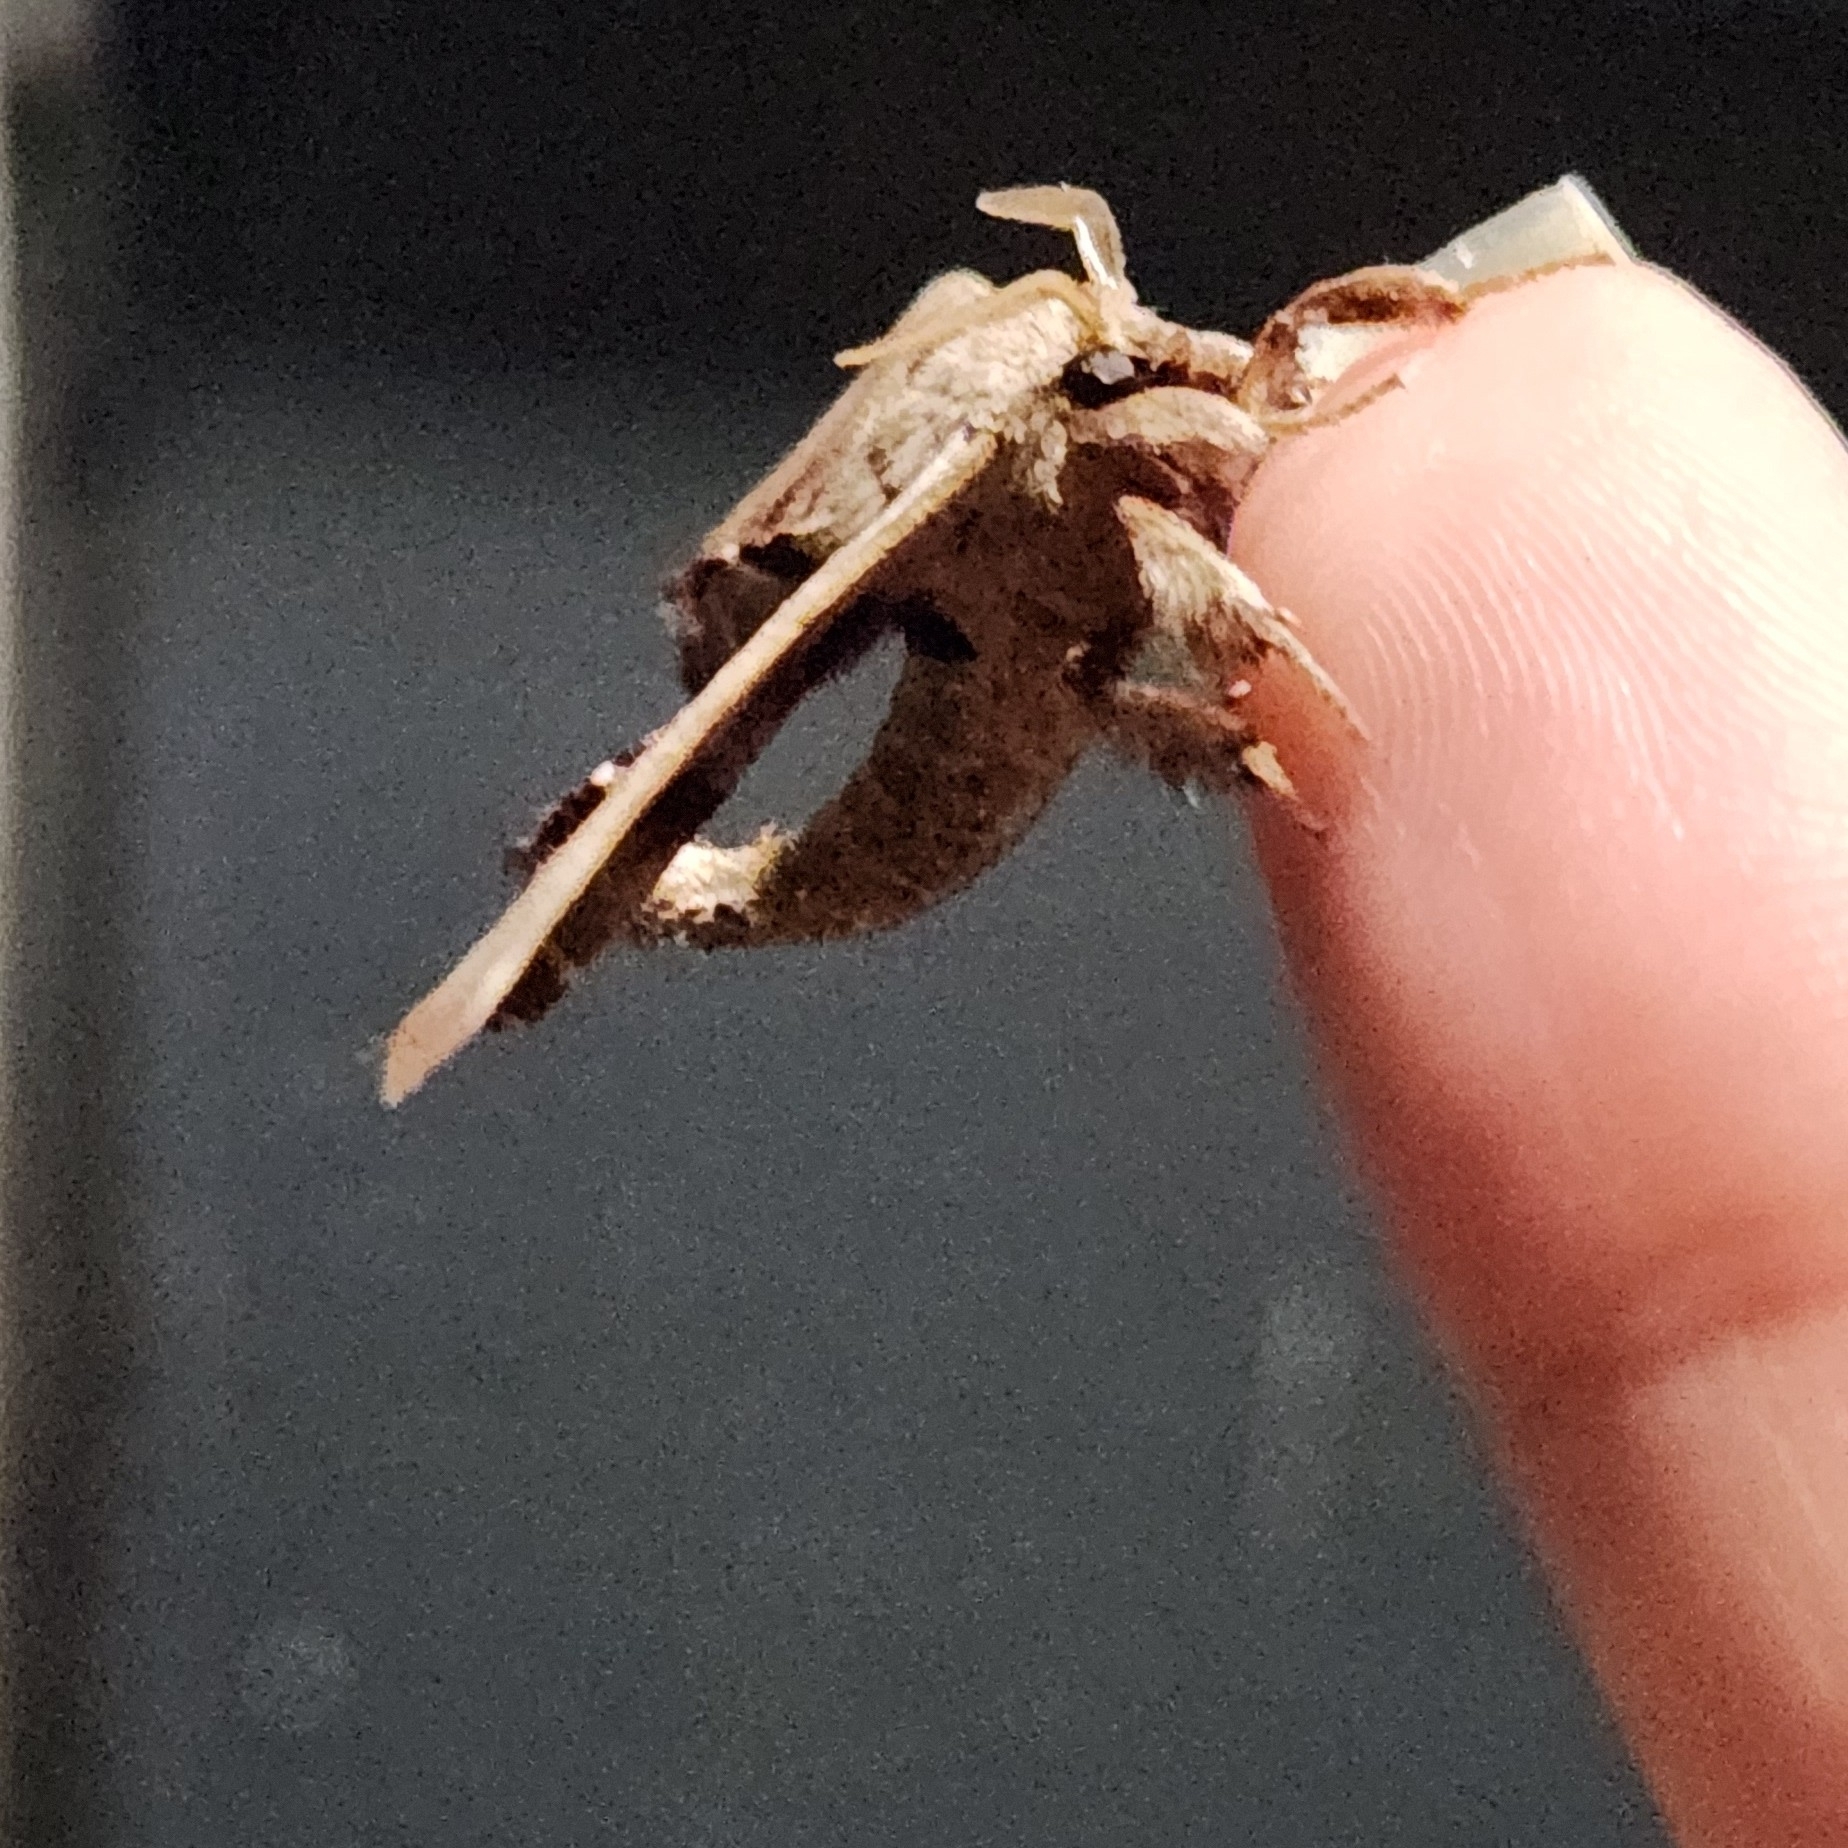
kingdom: Animalia
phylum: Arthropoda
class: Insecta
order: Lepidoptera
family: Apatelodidae
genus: Hygrochroa
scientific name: Hygrochroa Apatelodes torrefacta
